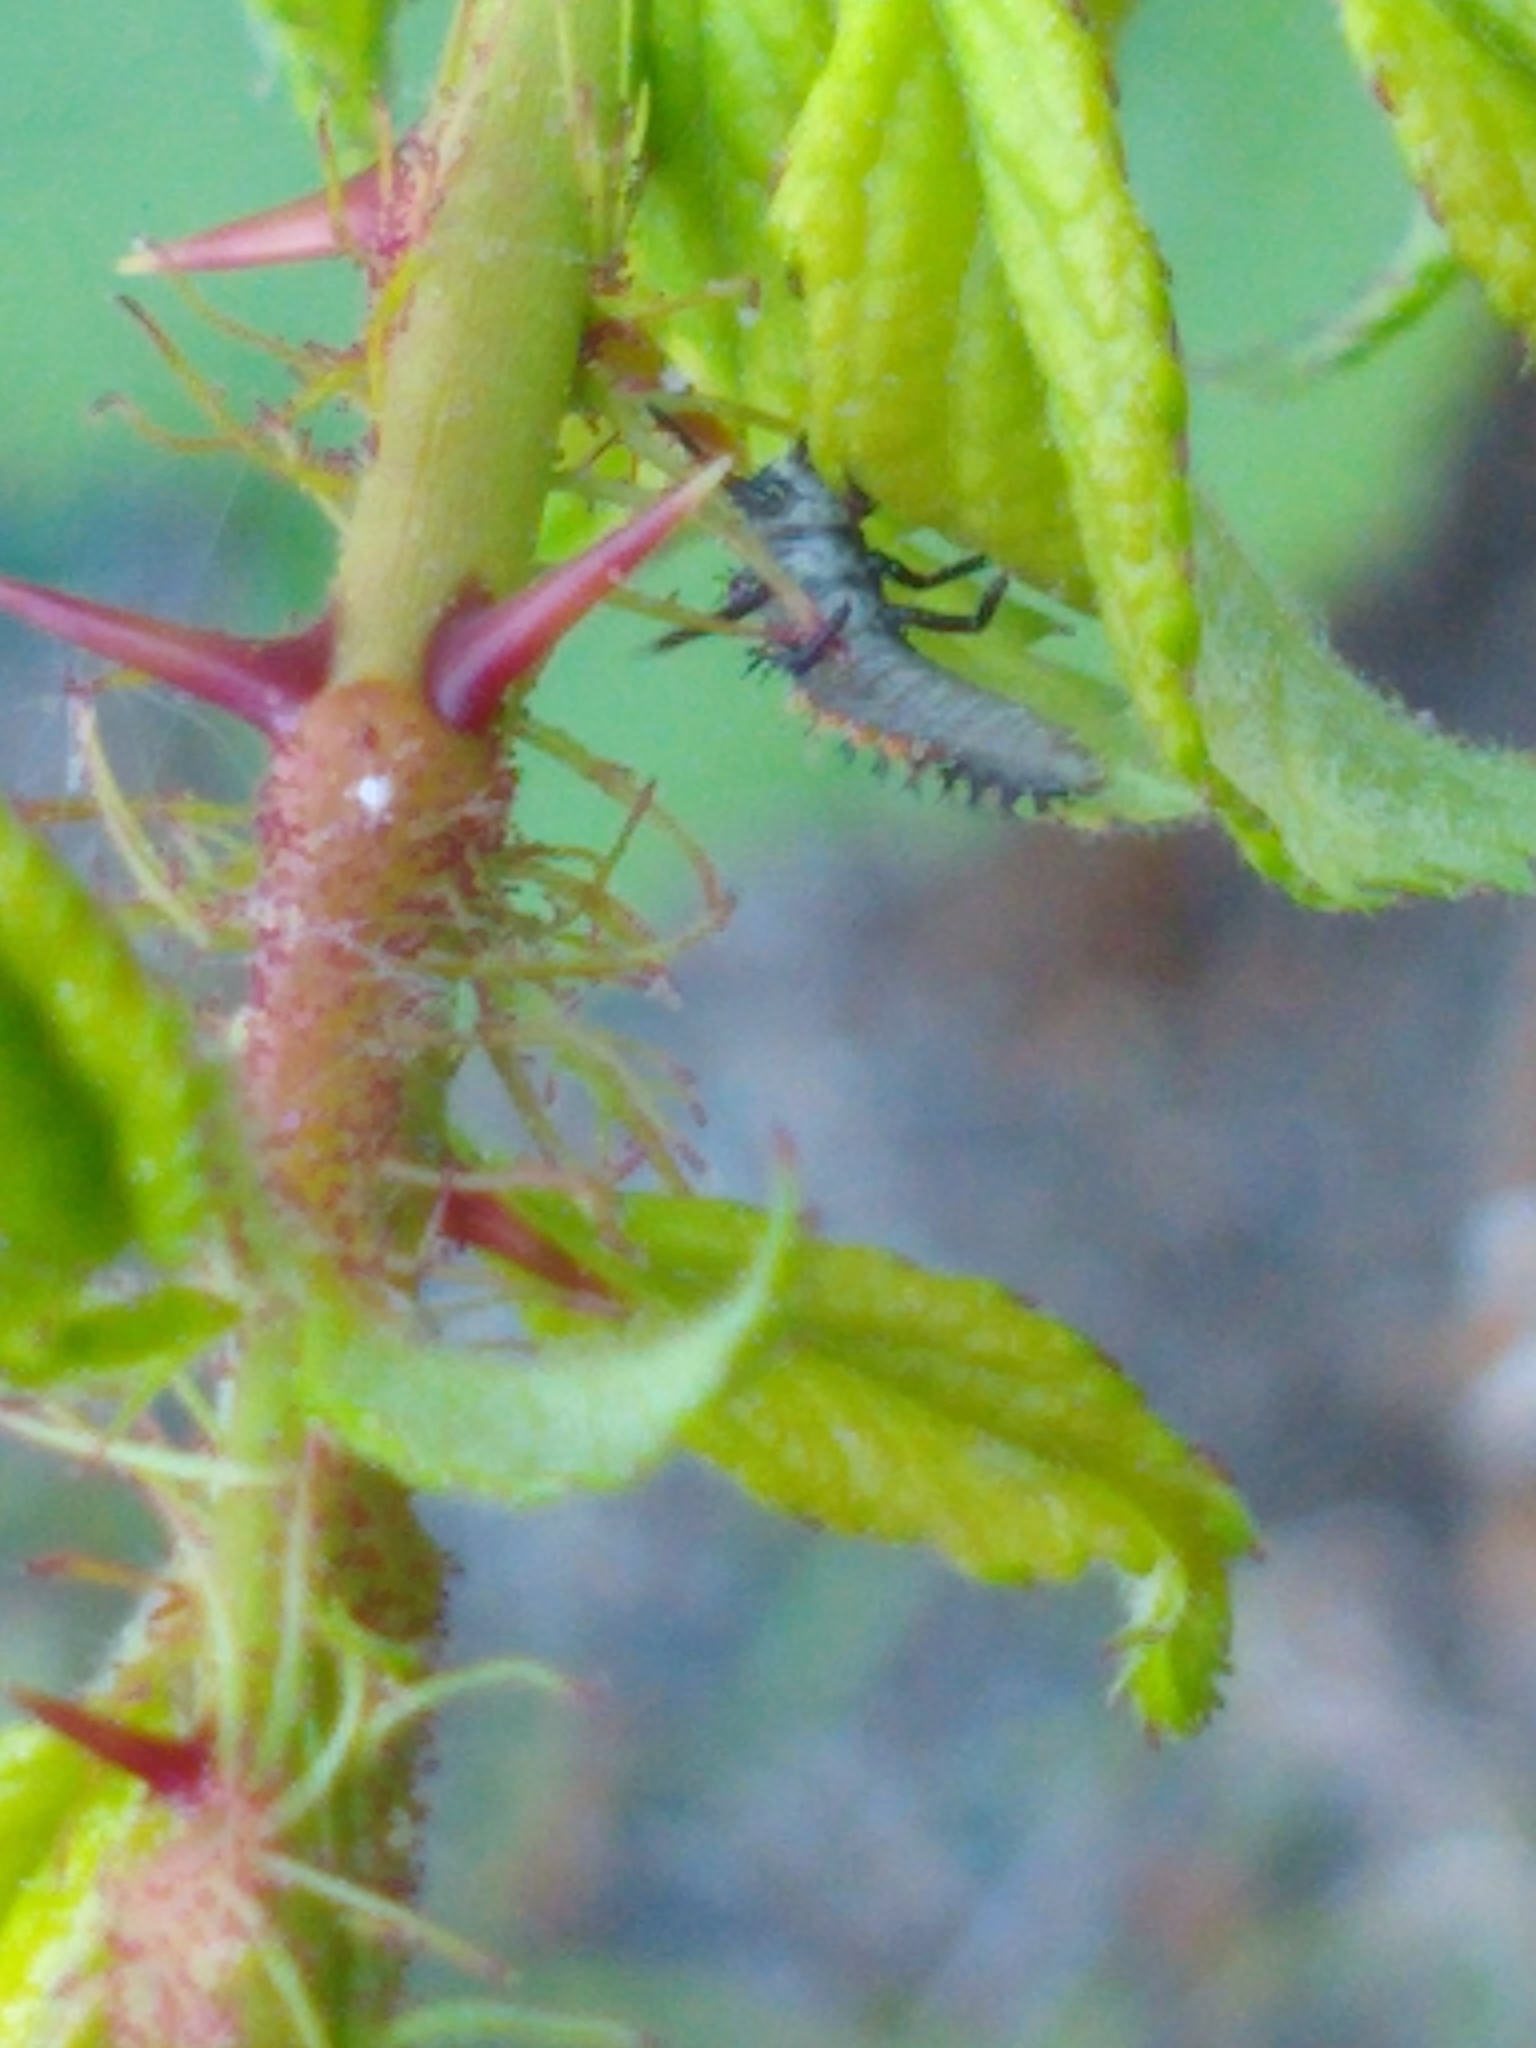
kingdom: Animalia
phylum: Arthropoda
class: Insecta
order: Coleoptera
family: Coccinellidae
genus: Harmonia
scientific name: Harmonia axyridis
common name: Harlequin ladybird
